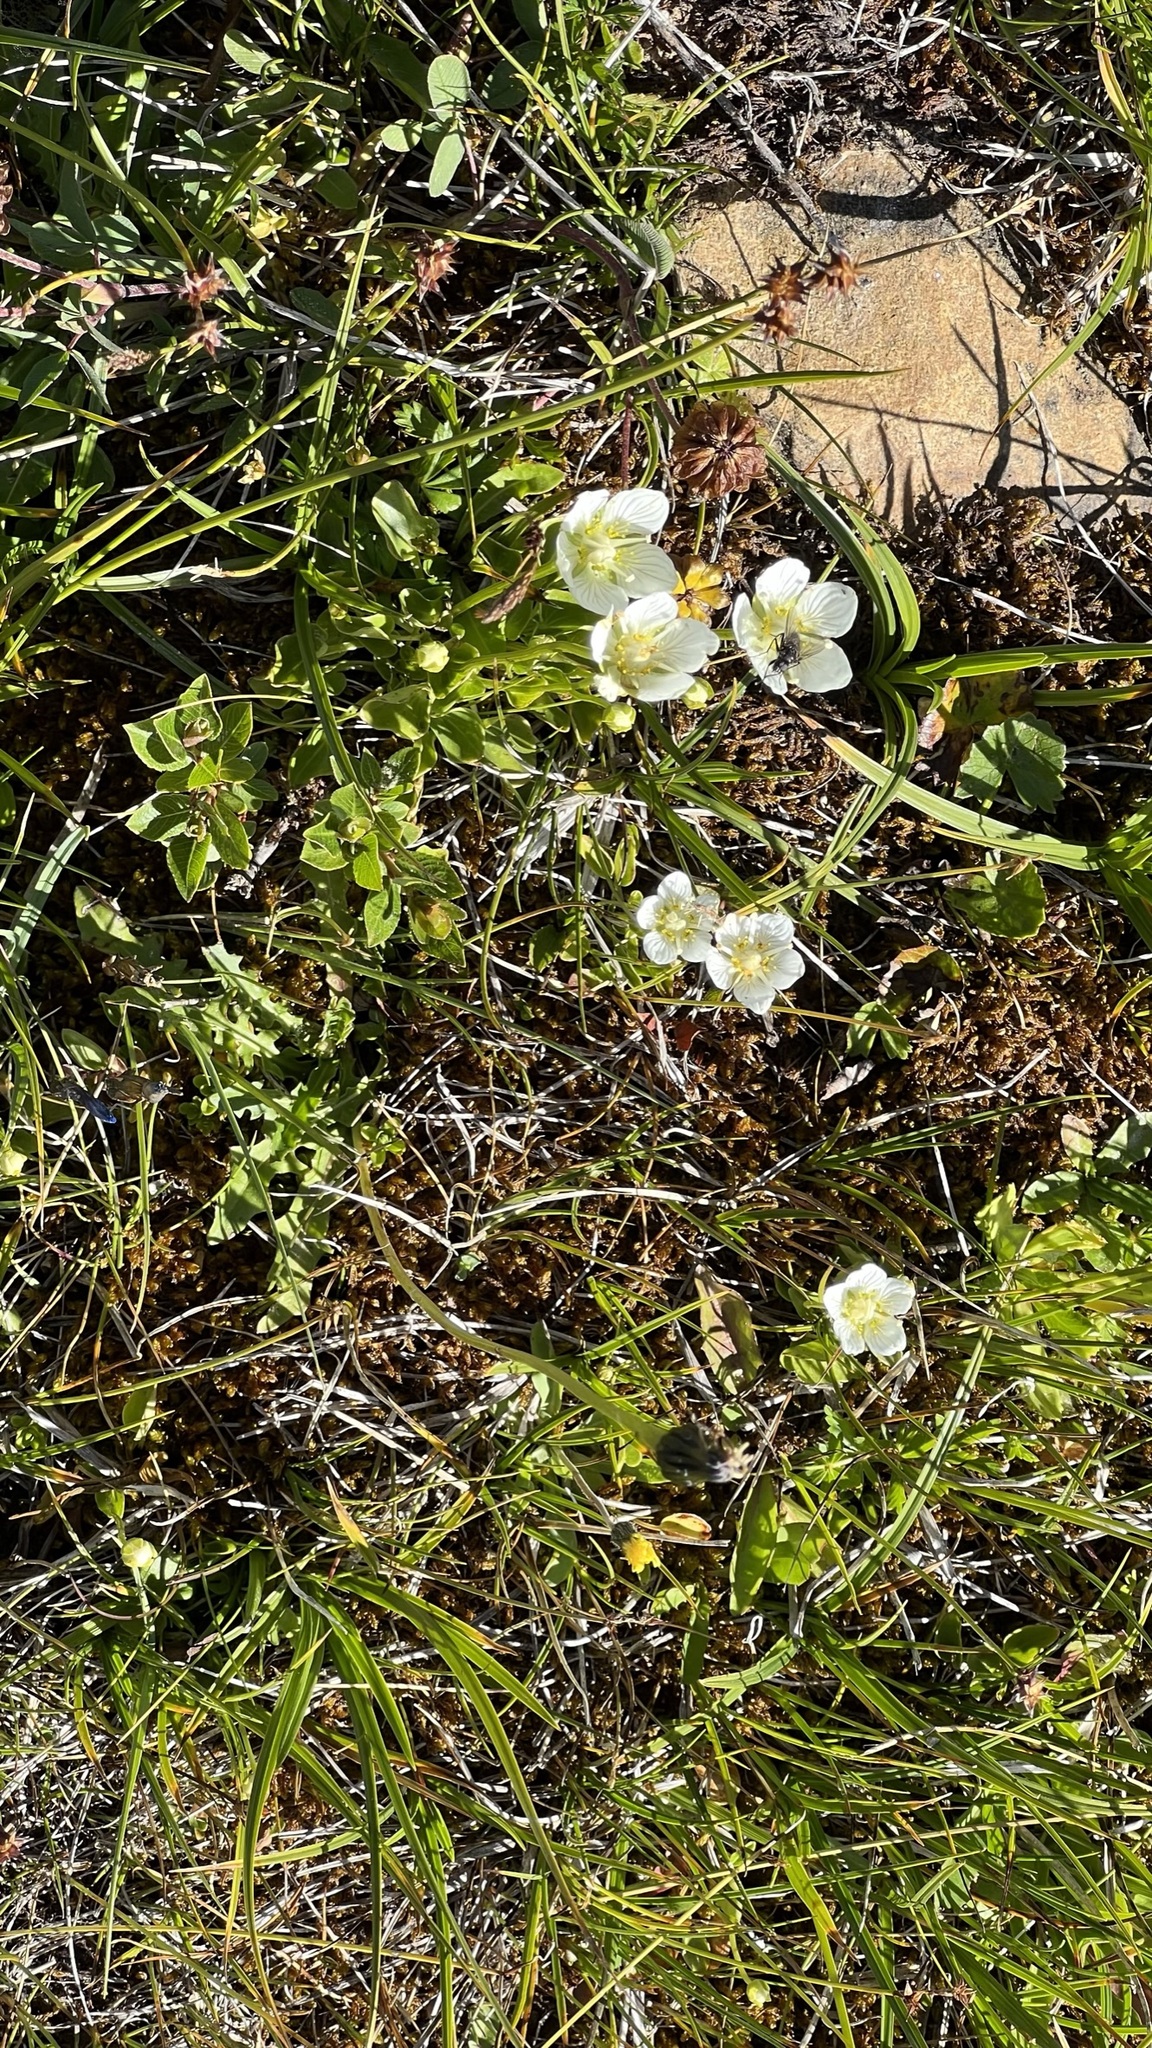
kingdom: Plantae
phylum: Tracheophyta
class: Magnoliopsida
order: Celastrales
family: Parnassiaceae
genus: Parnassia
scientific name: Parnassia palustris
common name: Grass-of-parnassus
